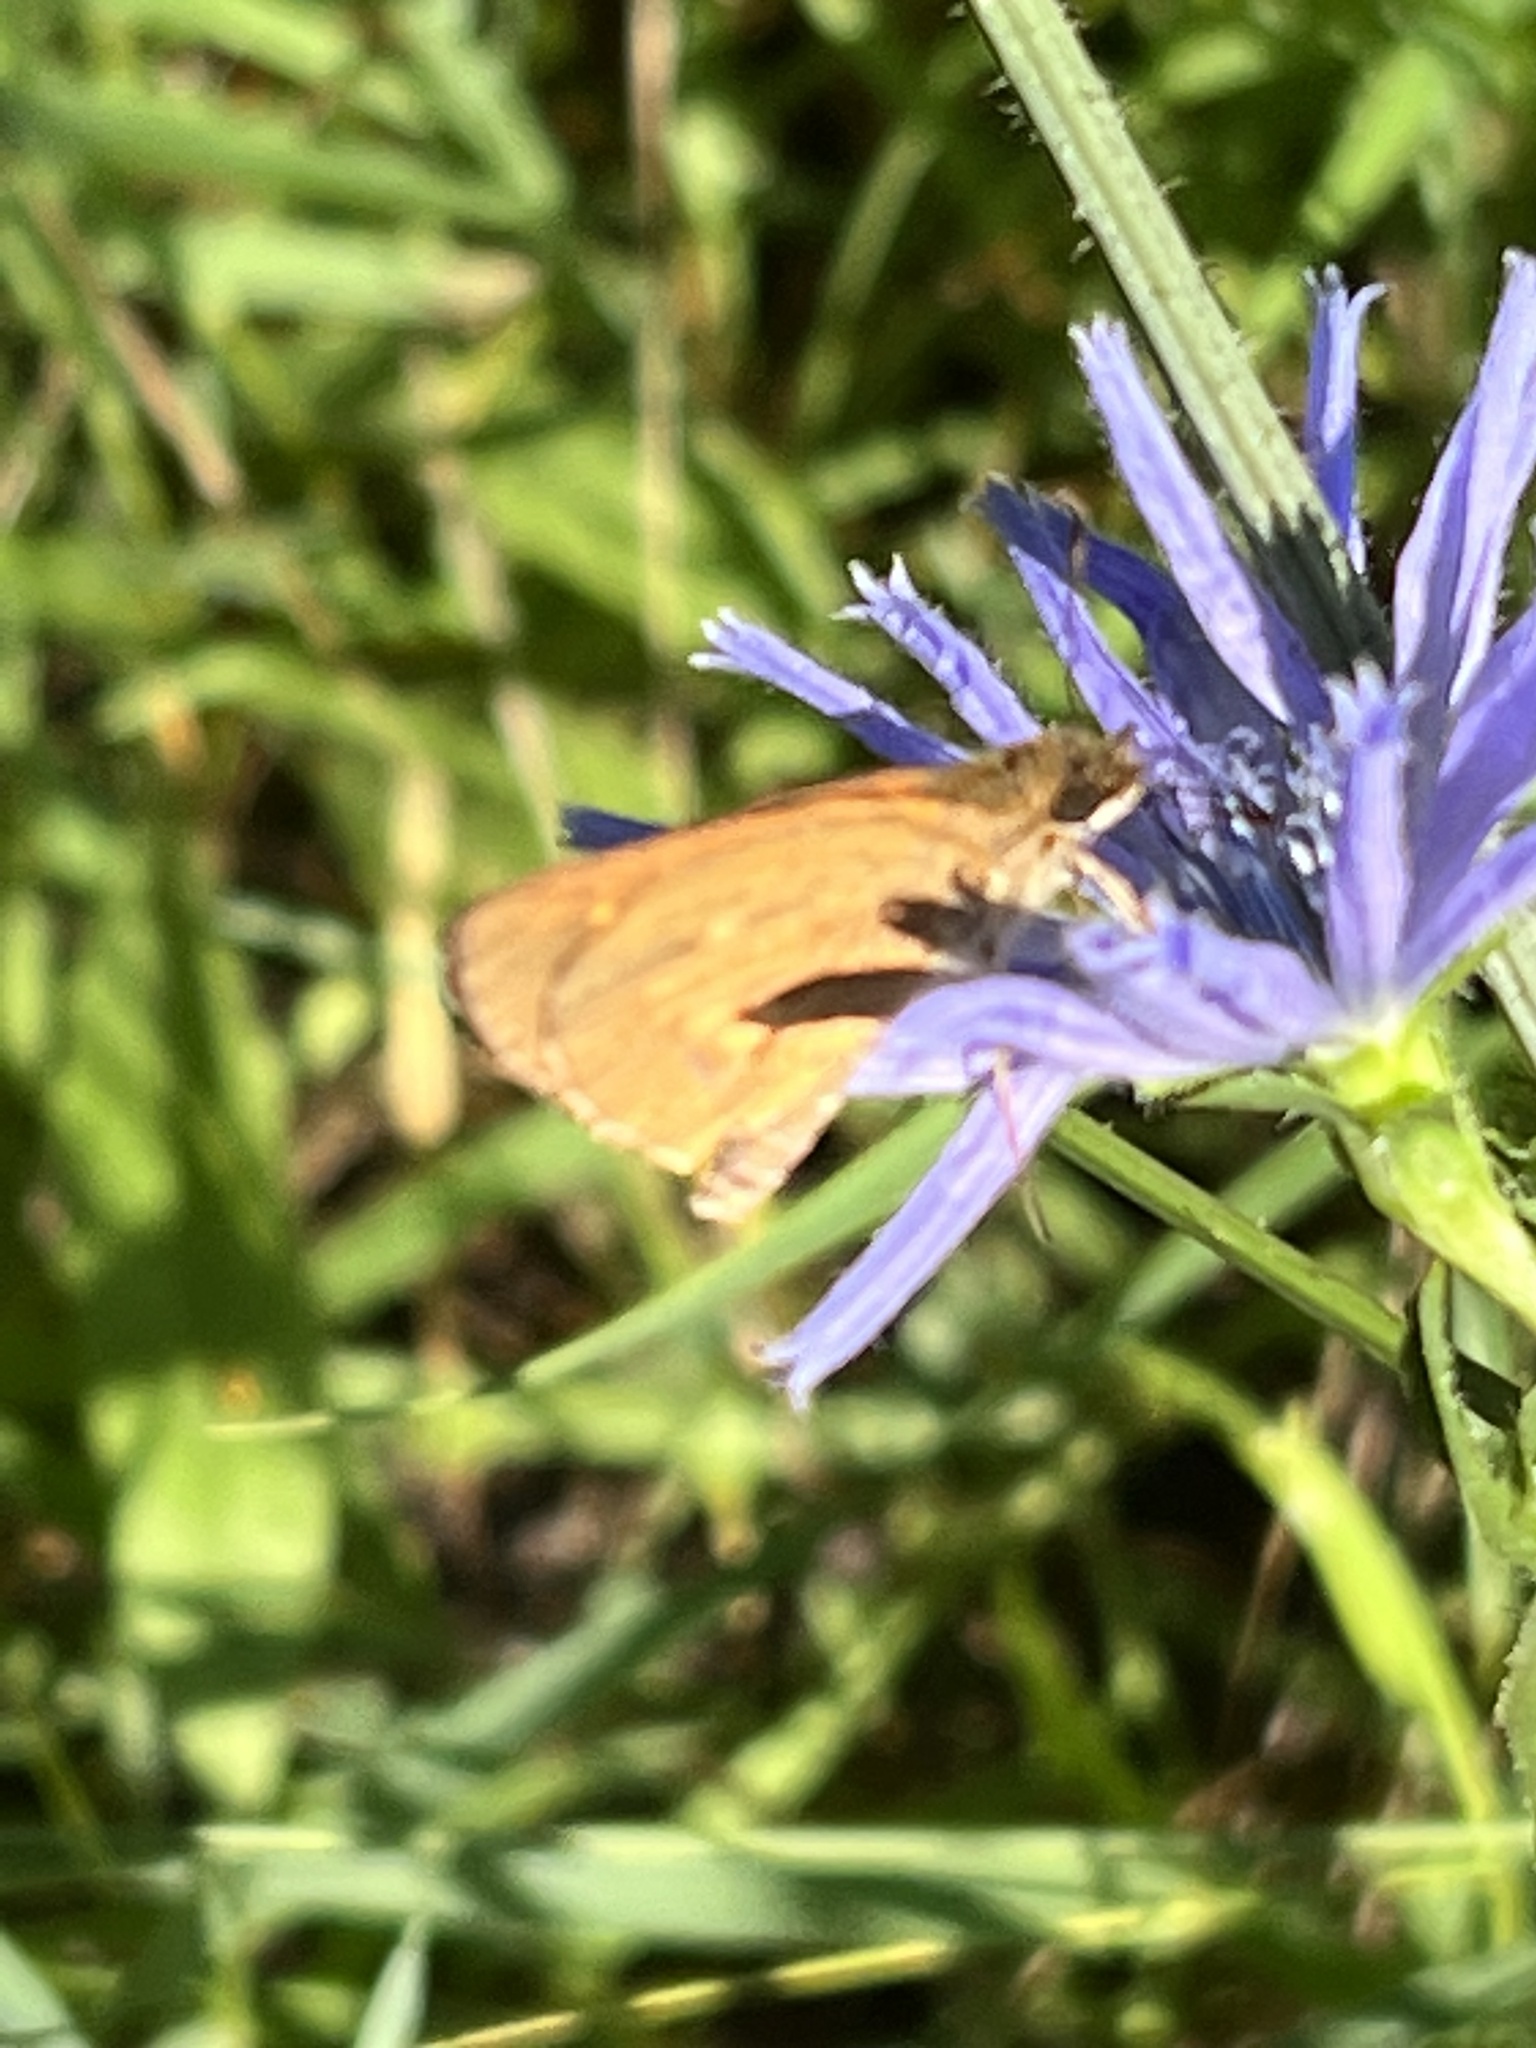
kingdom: Animalia
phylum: Arthropoda
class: Insecta
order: Lepidoptera
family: Hesperiidae
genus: Poanes
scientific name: Poanes viator
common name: Broad-winged skipper
